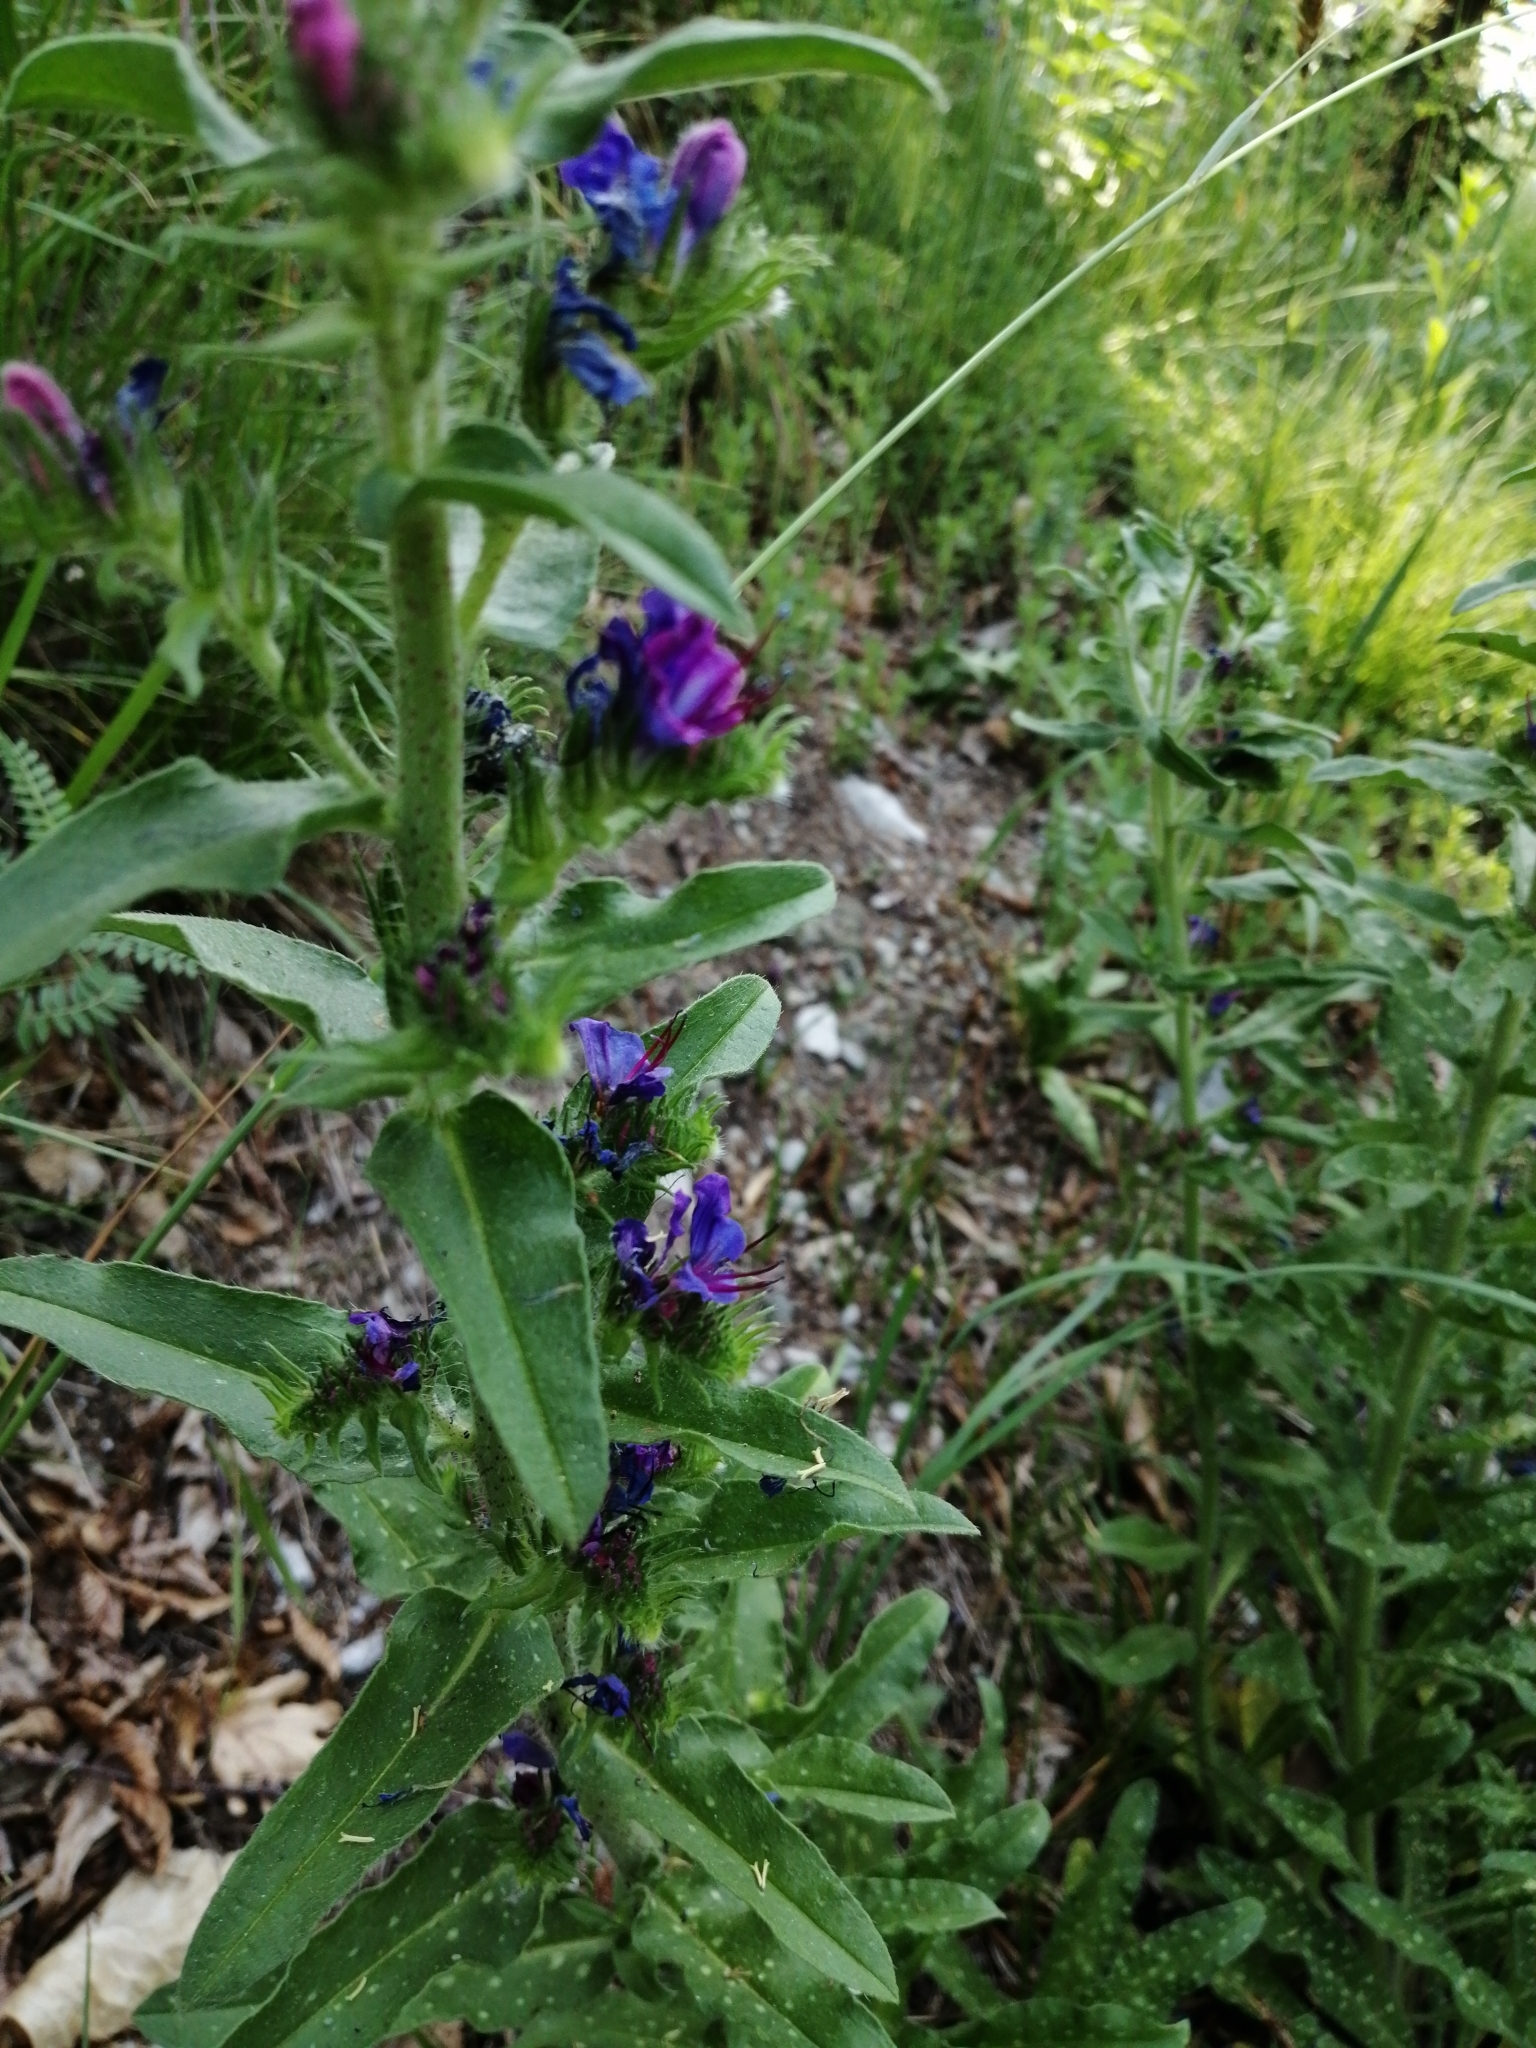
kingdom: Plantae
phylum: Tracheophyta
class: Magnoliopsida
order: Boraginales
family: Boraginaceae
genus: Echium
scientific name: Echium vulgare
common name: Common viper's bugloss
